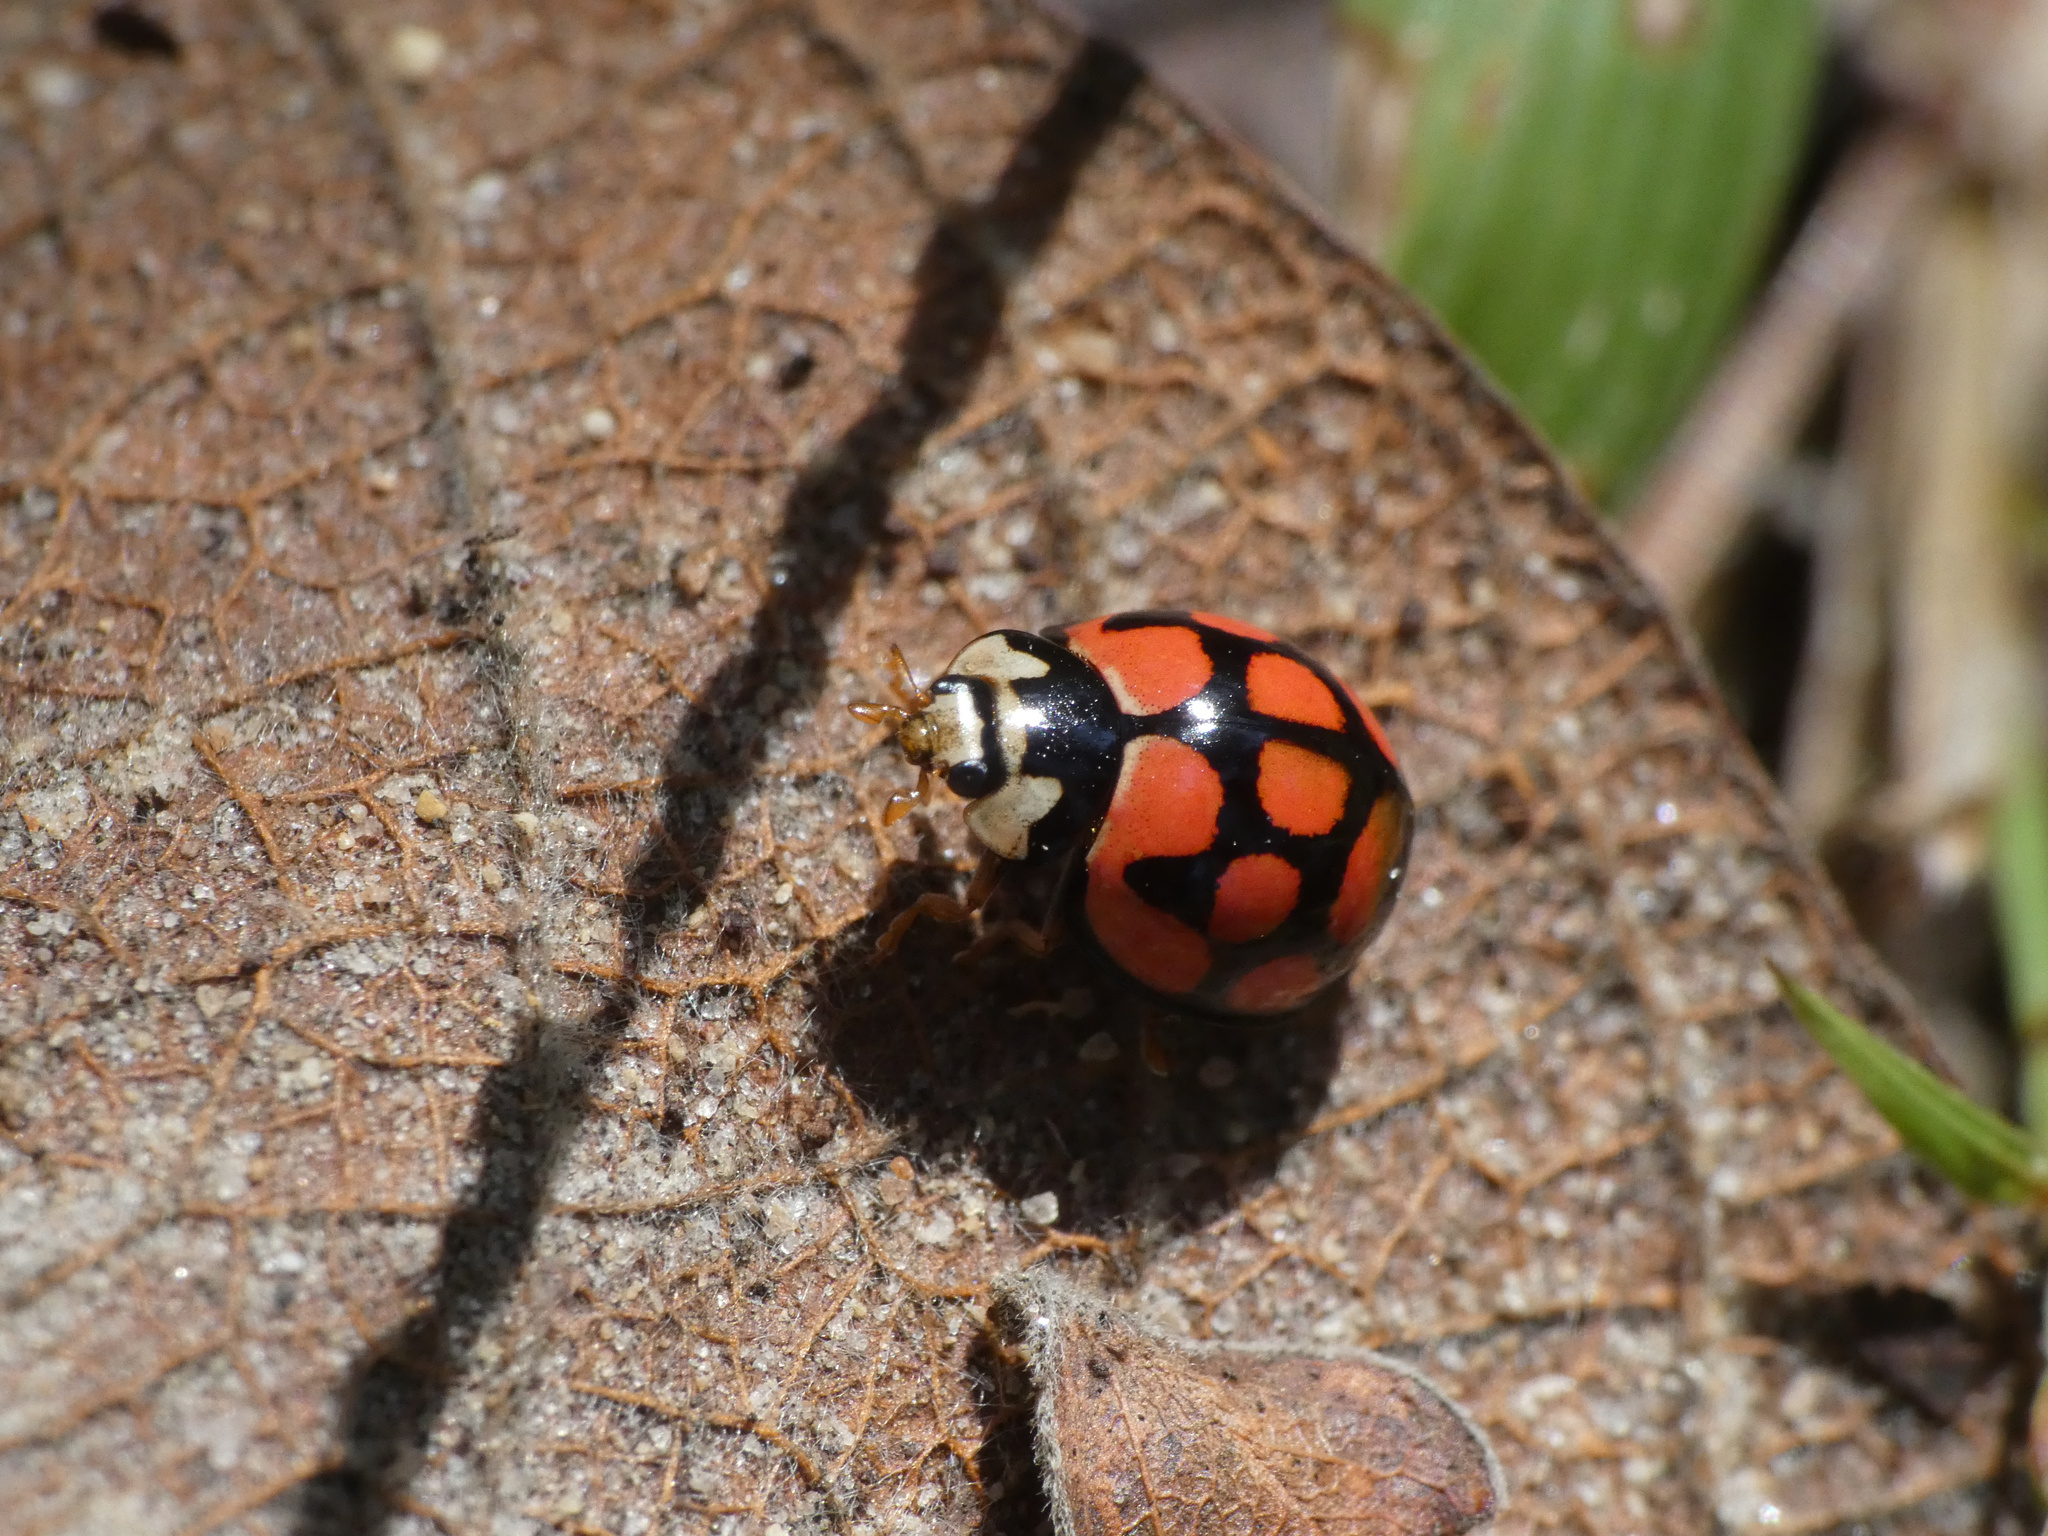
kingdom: Animalia
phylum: Arthropoda
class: Insecta
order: Coleoptera
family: Coccinellidae
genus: Cheilomenes
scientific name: Cheilomenes lunata
